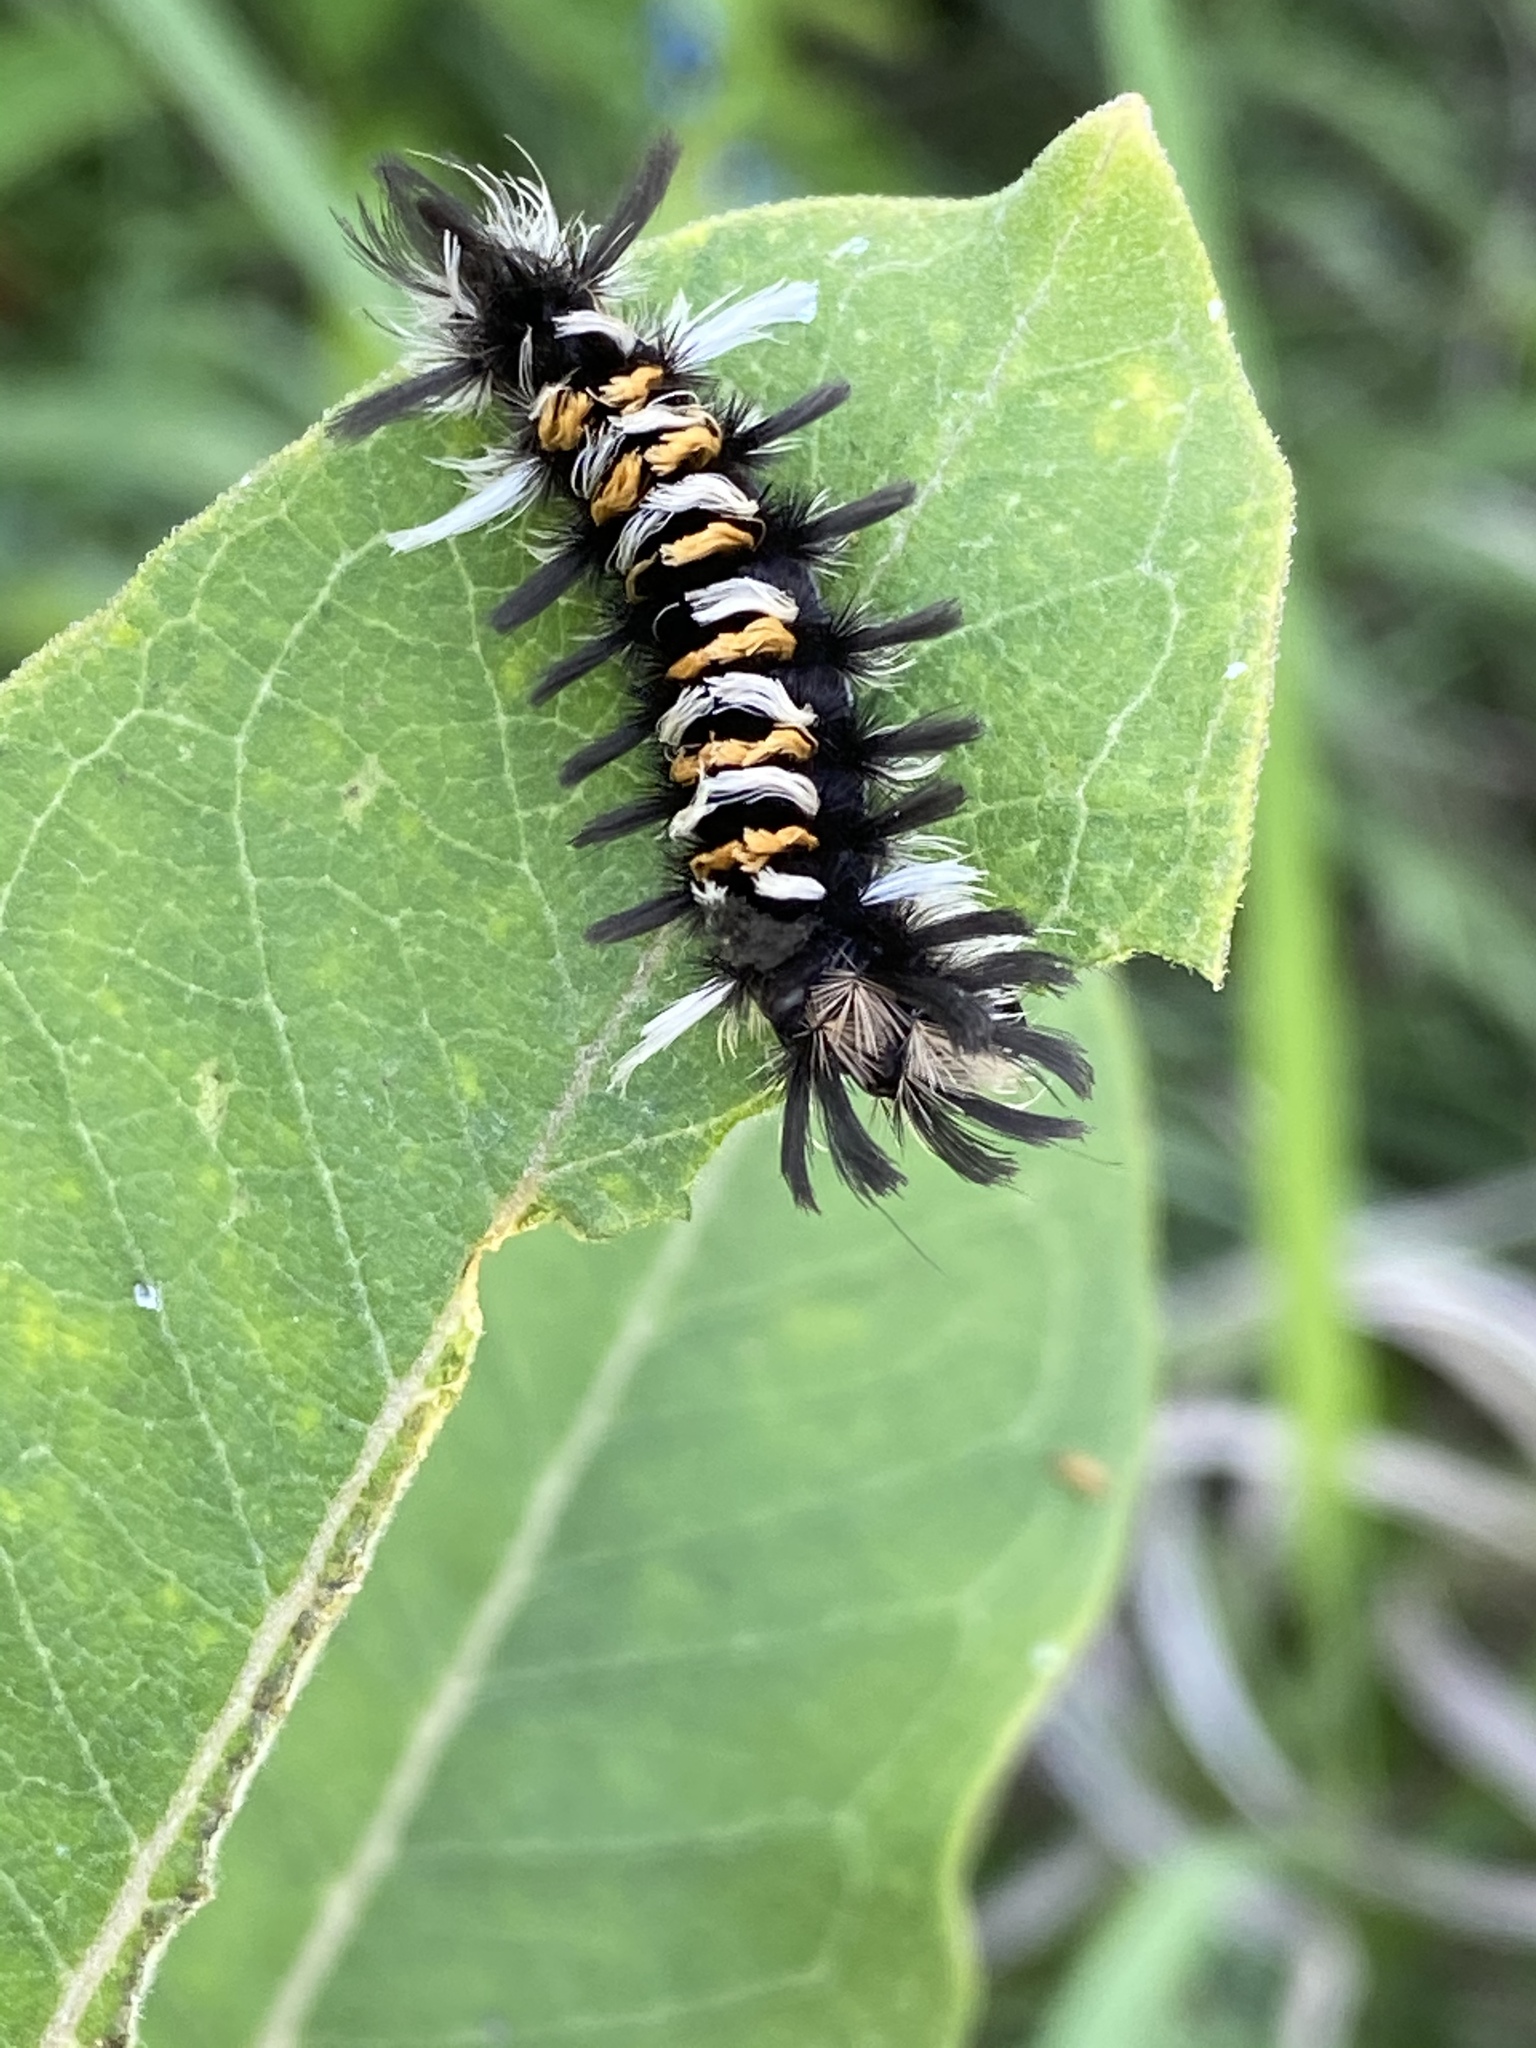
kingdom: Animalia
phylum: Arthropoda
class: Insecta
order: Lepidoptera
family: Erebidae
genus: Euchaetes
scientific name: Euchaetes egle
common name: Milkweed tussock moth
